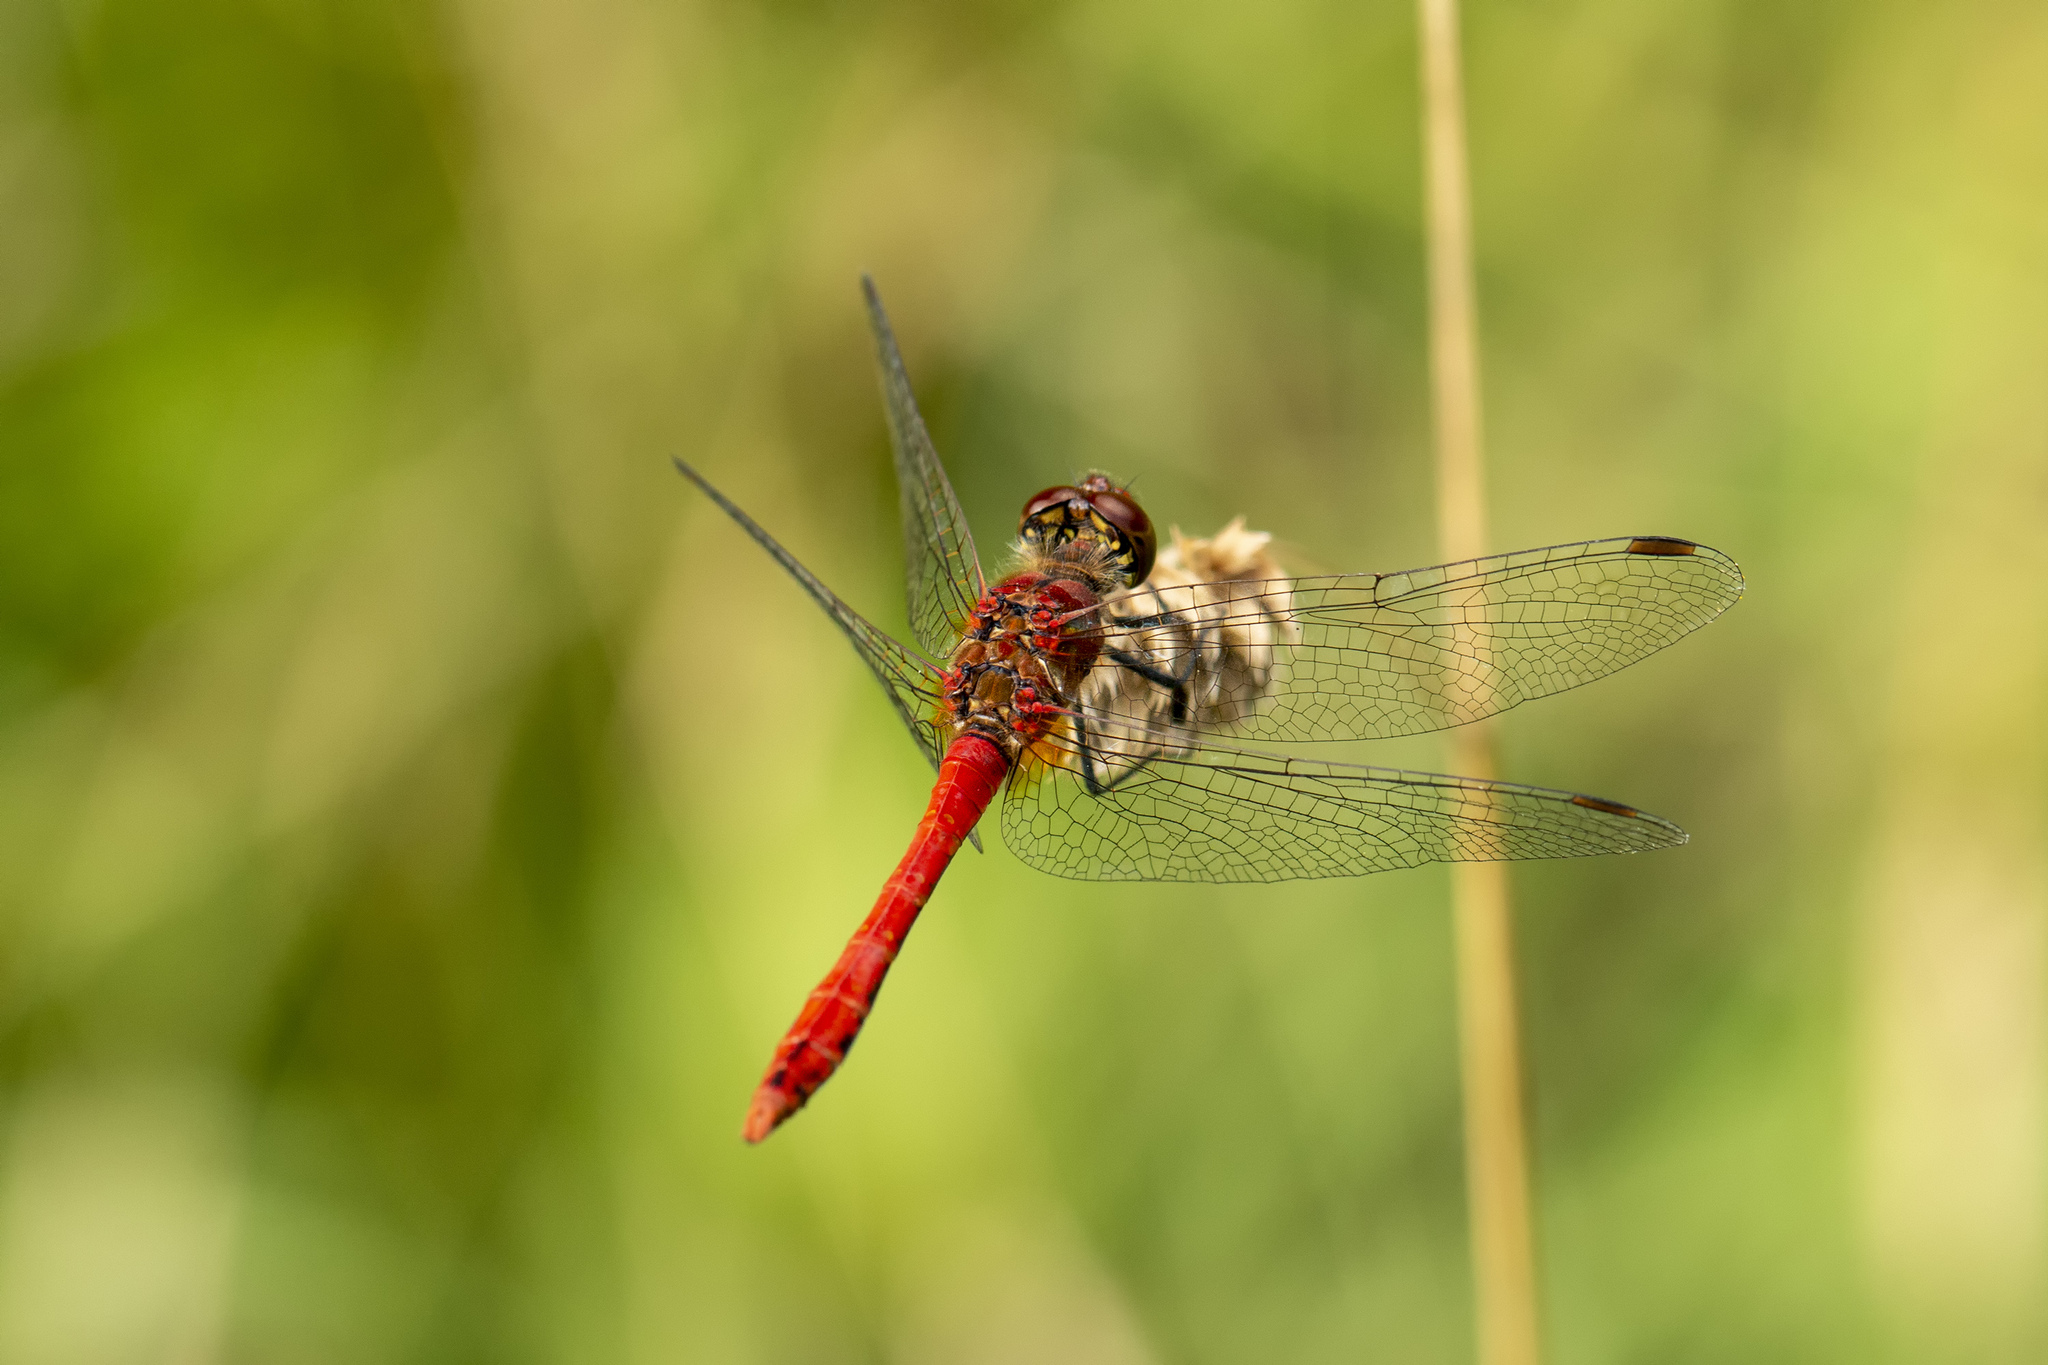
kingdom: Animalia
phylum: Arthropoda
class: Insecta
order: Odonata
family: Libellulidae
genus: Sympetrum
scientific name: Sympetrum sanguineum
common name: Ruddy darter
